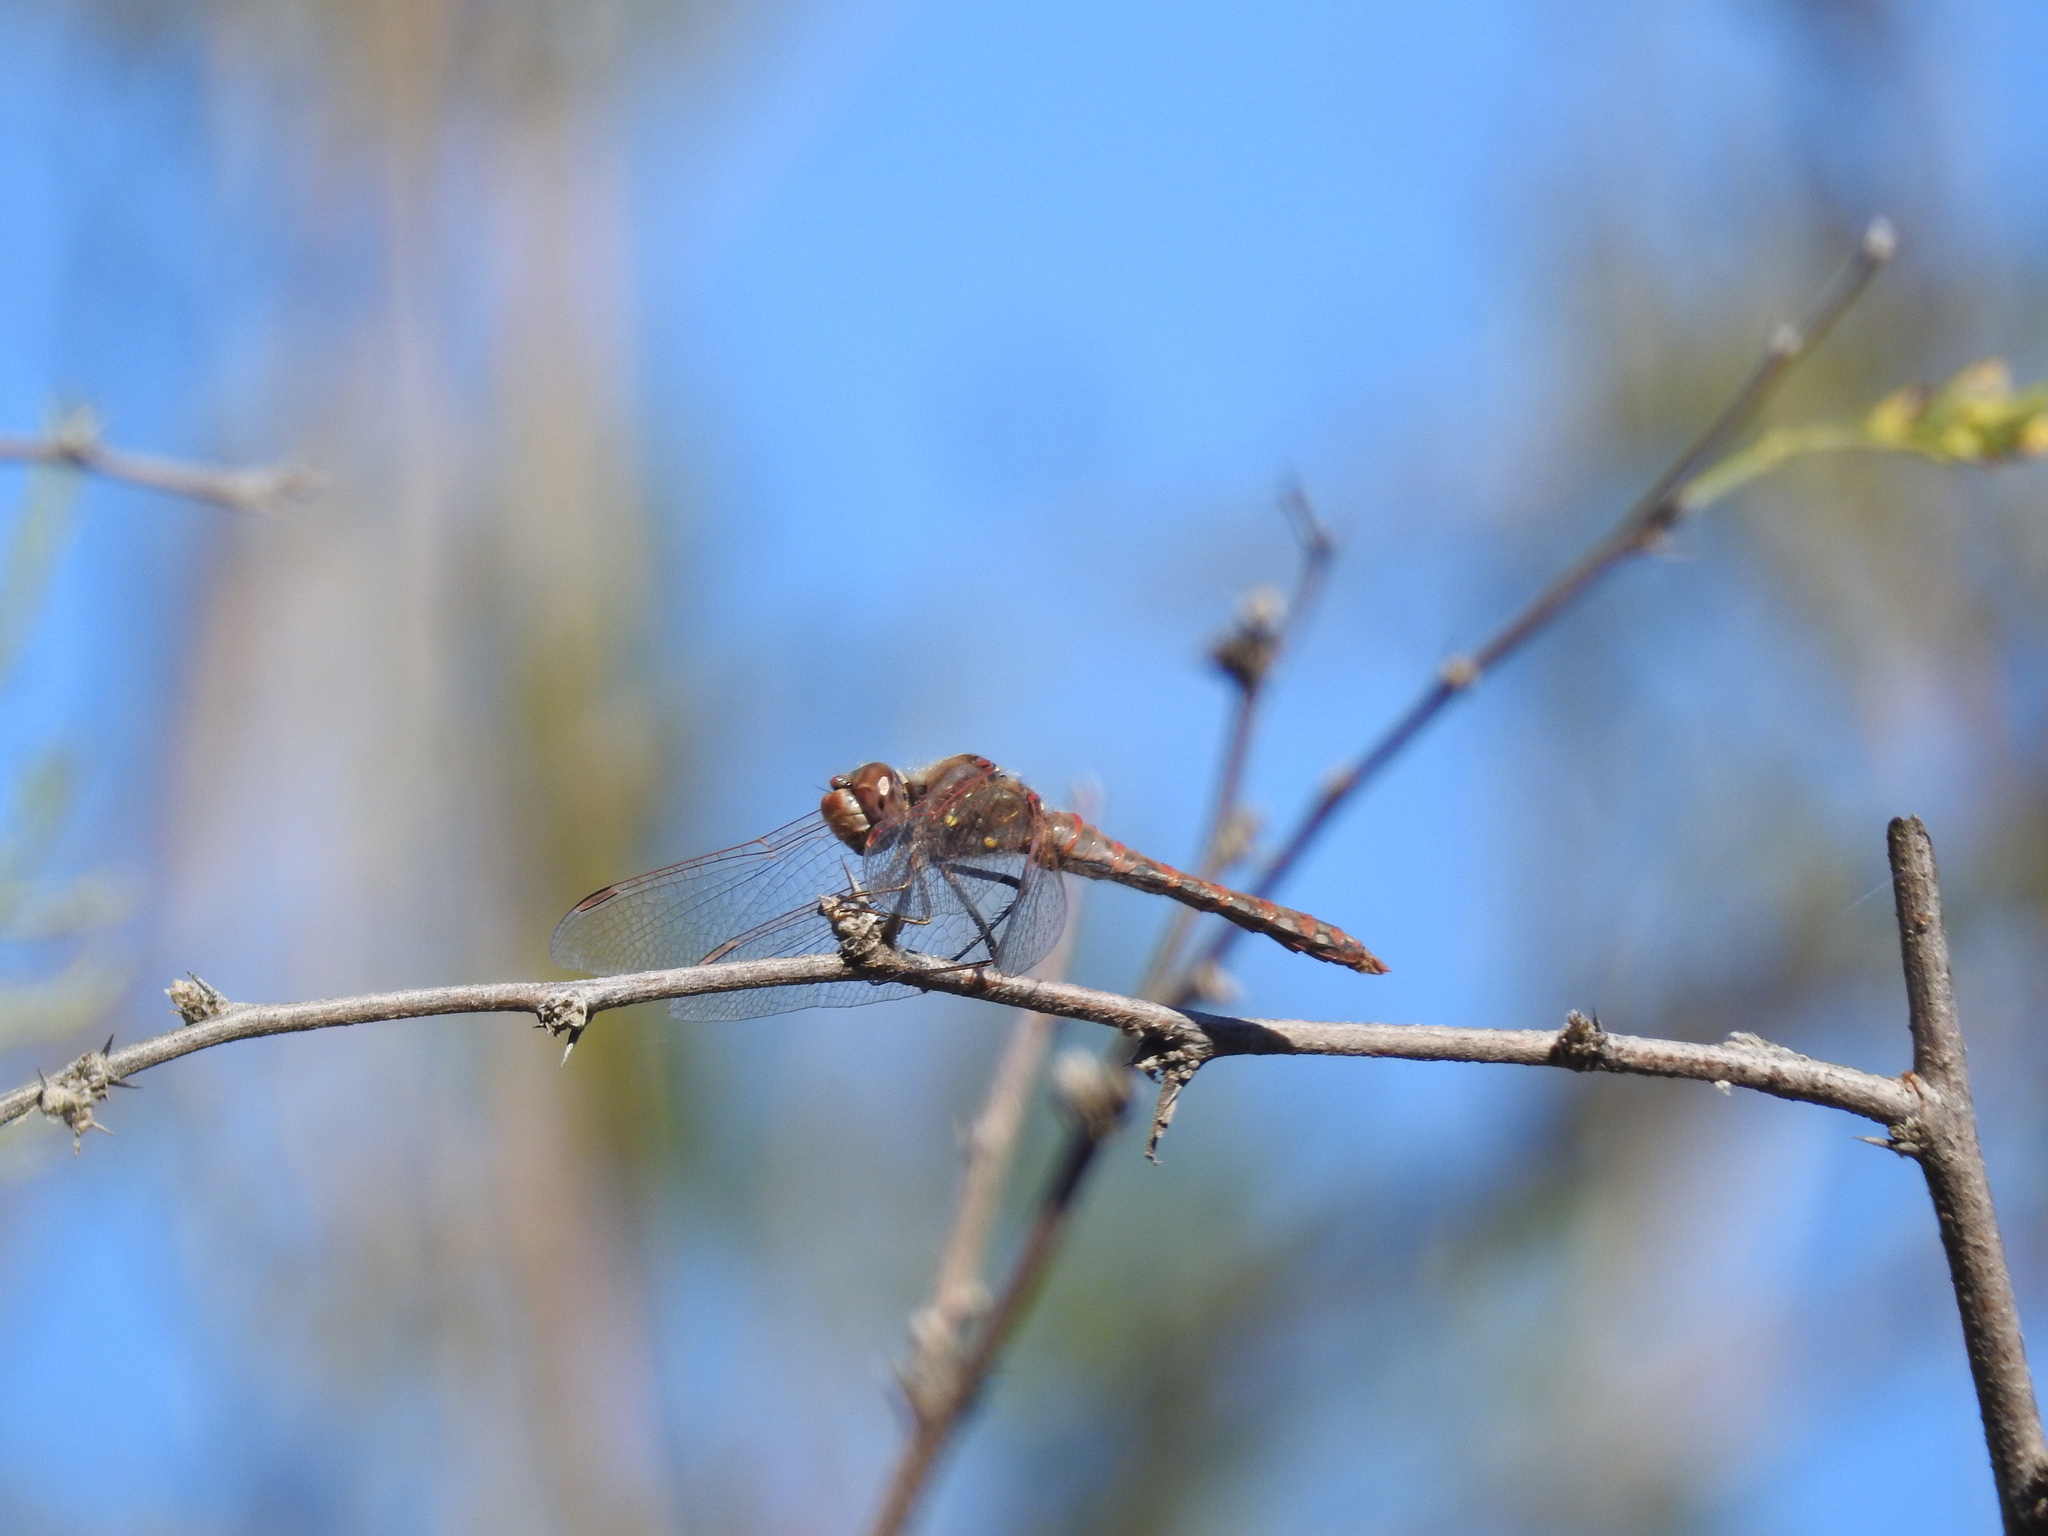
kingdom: Animalia
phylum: Arthropoda
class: Insecta
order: Odonata
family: Libellulidae
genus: Sympetrum
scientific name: Sympetrum corruptum
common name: Variegated meadowhawk
